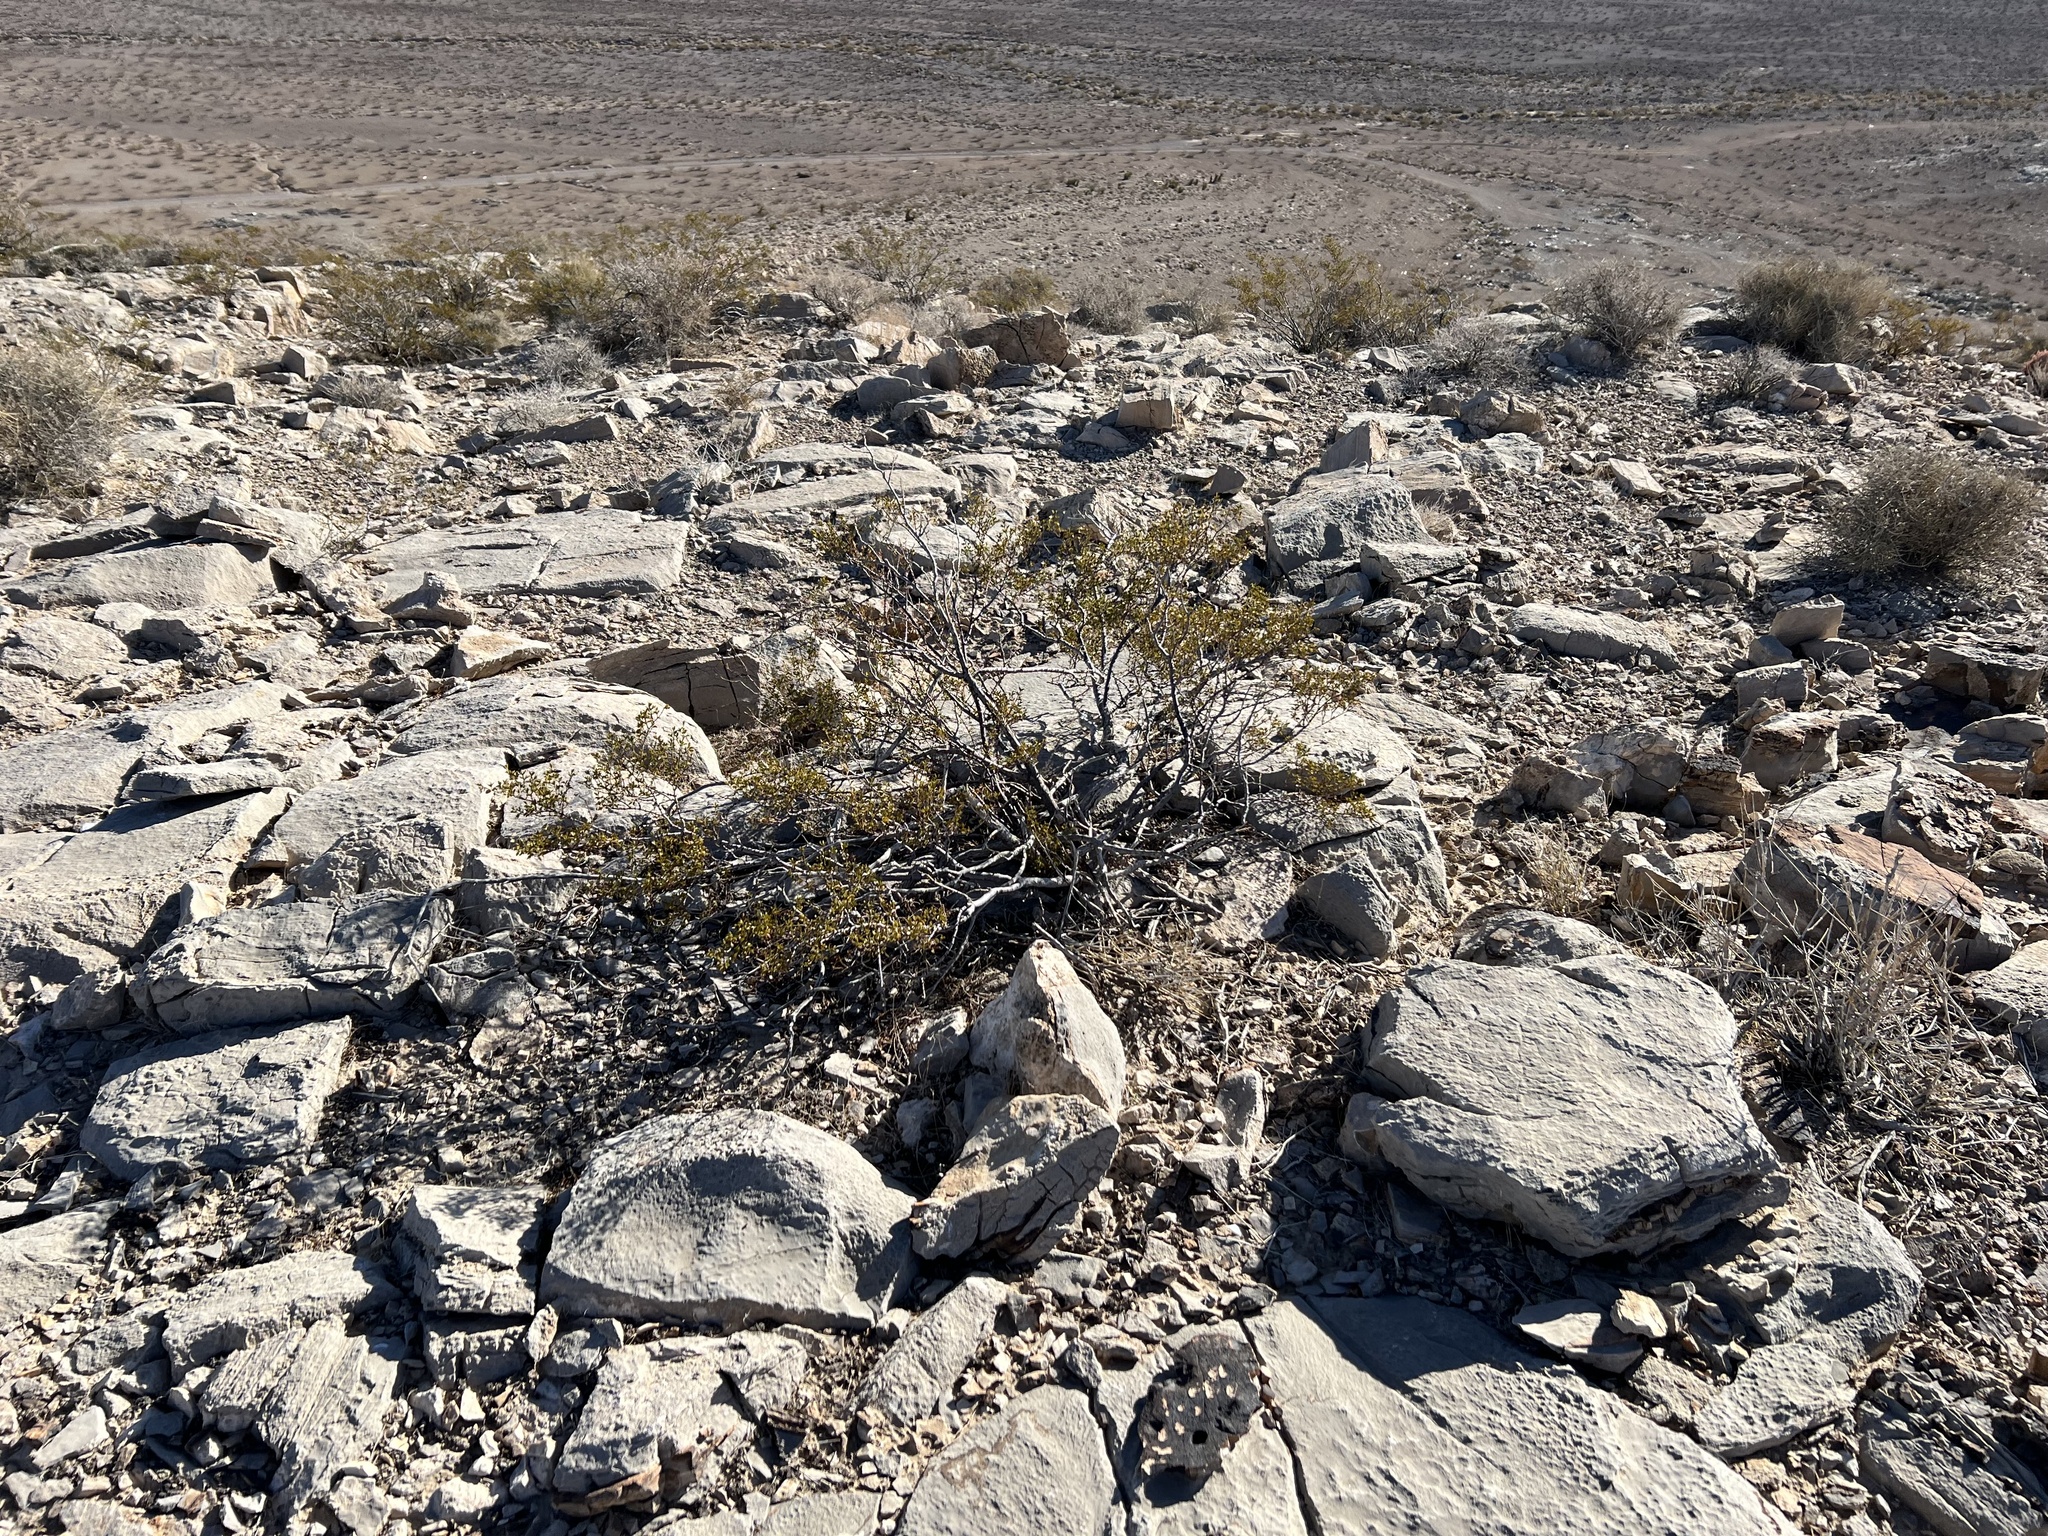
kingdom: Plantae
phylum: Tracheophyta
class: Magnoliopsida
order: Zygophyllales
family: Zygophyllaceae
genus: Larrea
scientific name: Larrea tridentata
